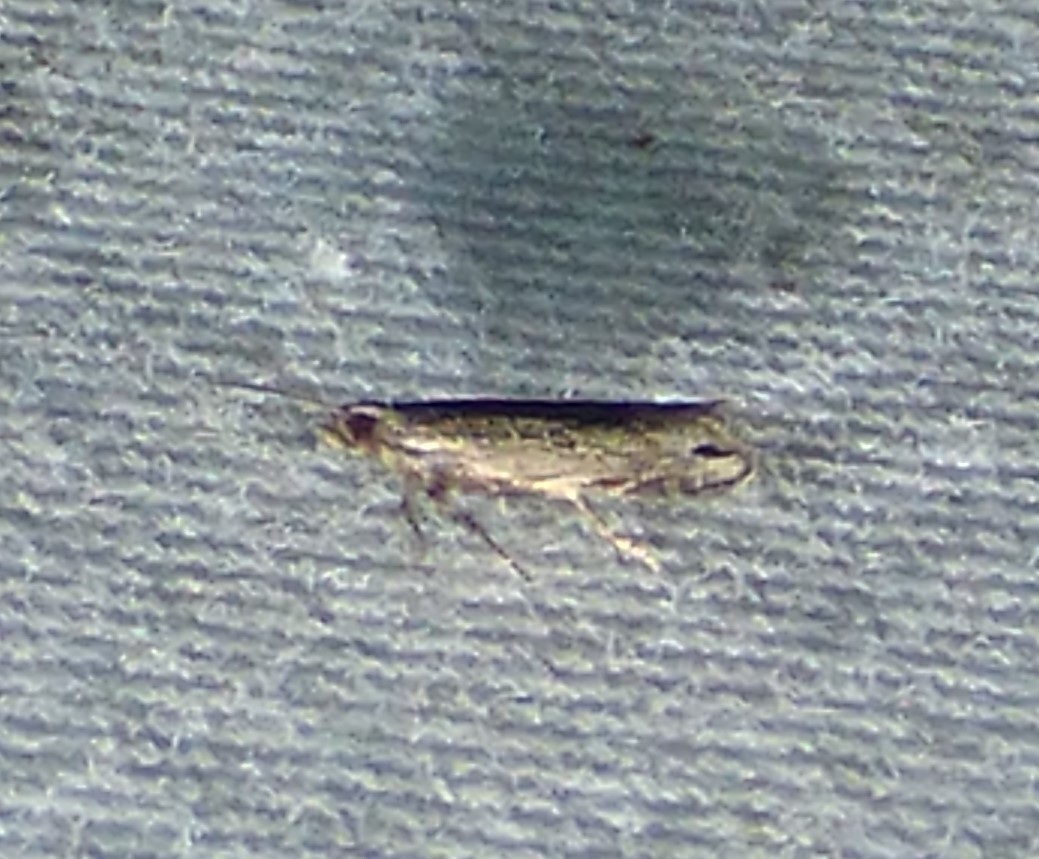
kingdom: Animalia
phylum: Arthropoda
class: Insecta
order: Lepidoptera
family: Gelechiidae
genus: Battaristis
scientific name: Battaristis concinnusella
